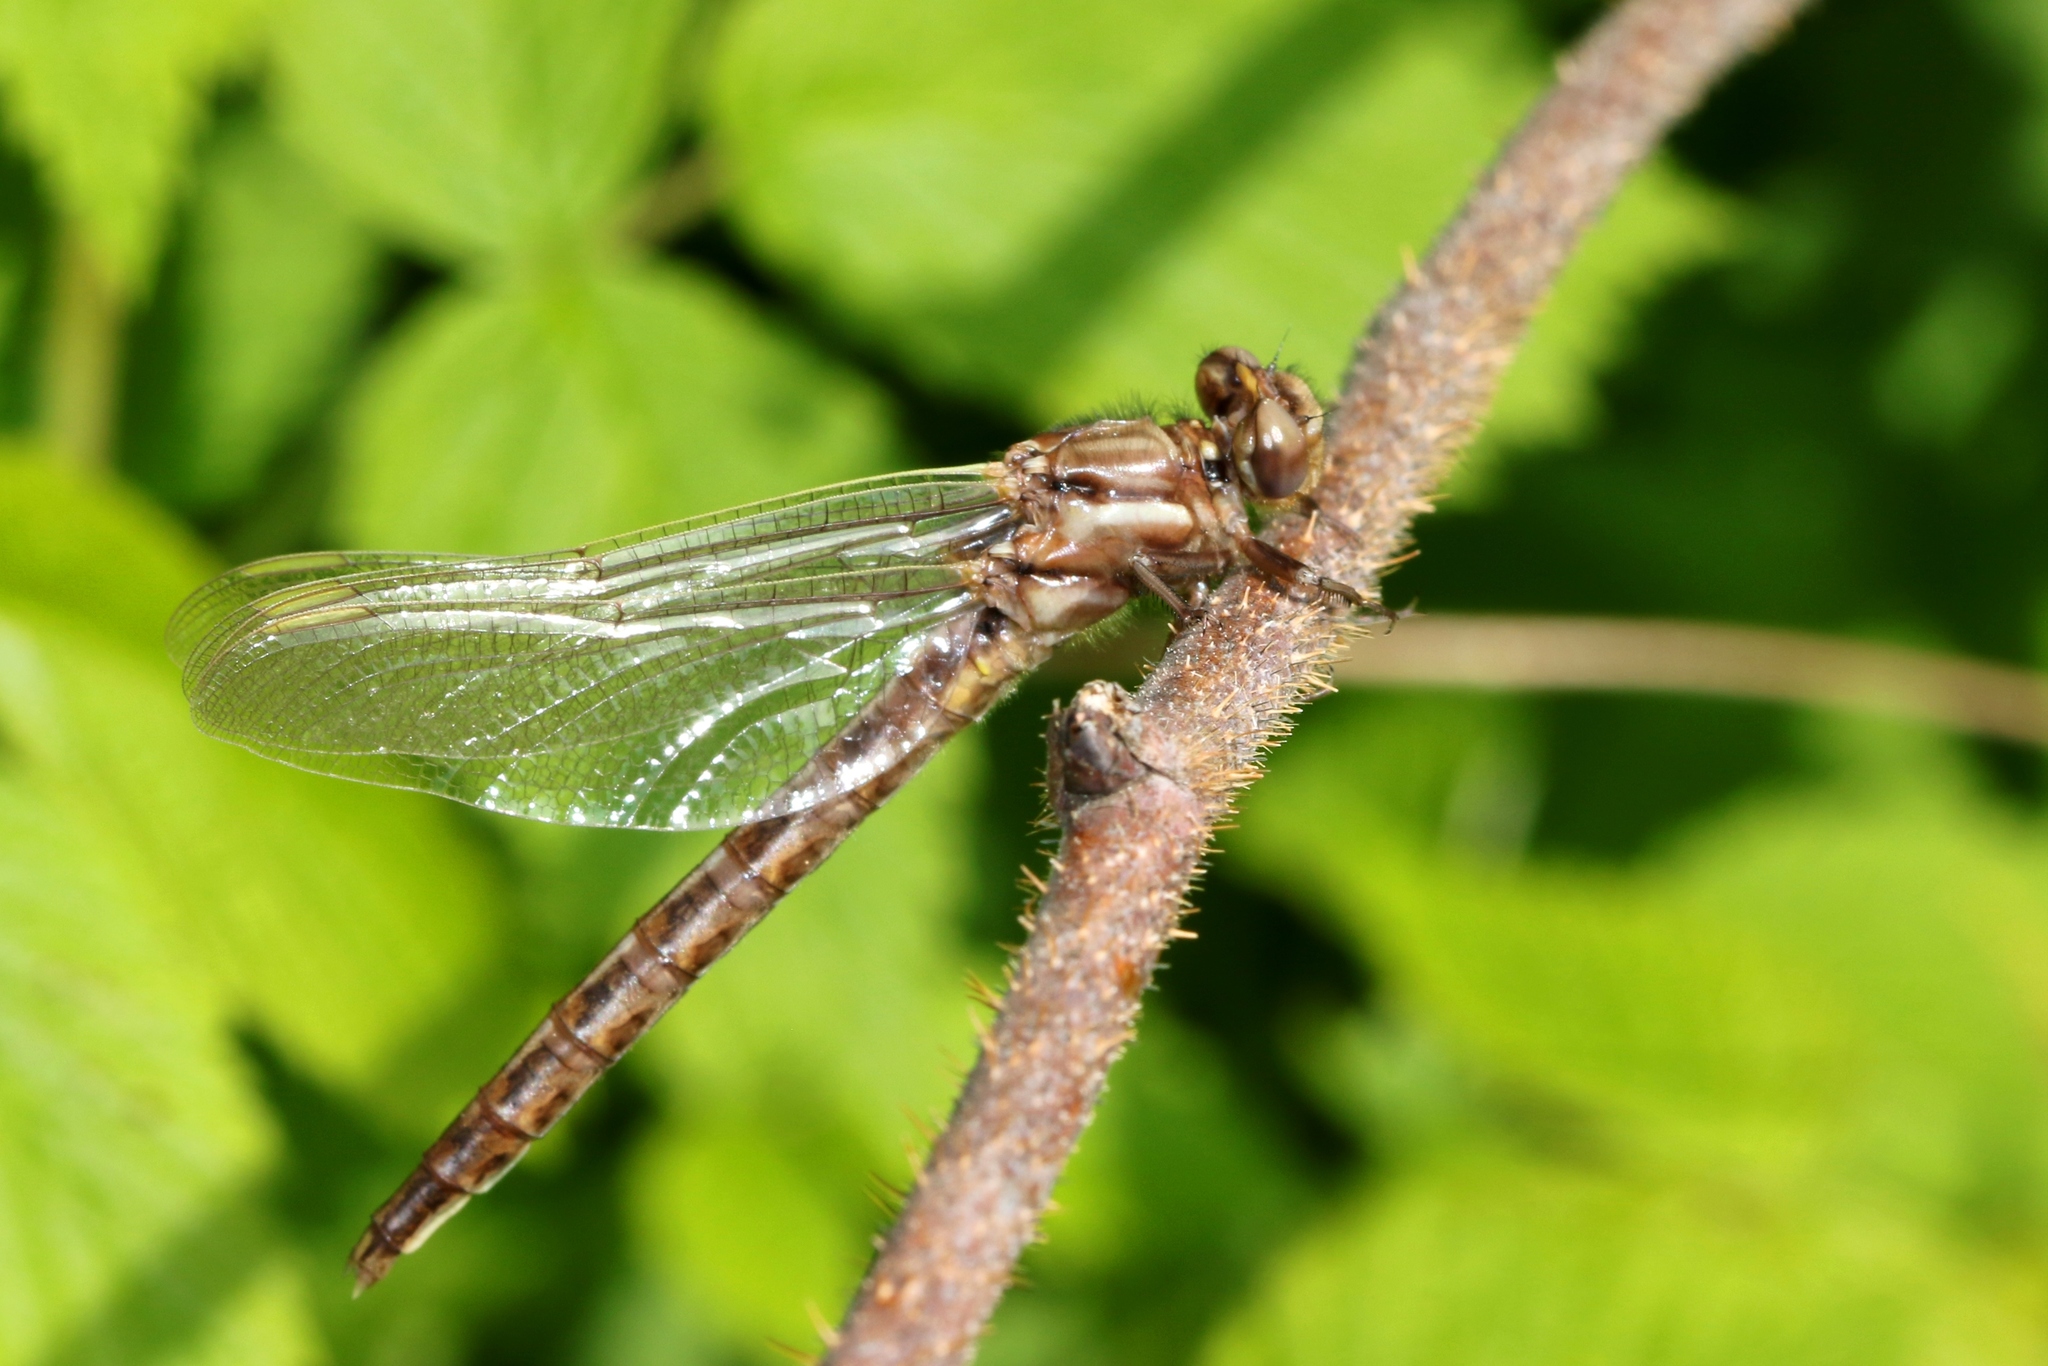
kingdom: Animalia
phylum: Arthropoda
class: Insecta
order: Odonata
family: Gomphidae
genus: Phanogomphus
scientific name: Phanogomphus spicatus
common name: Dusky clubtail
